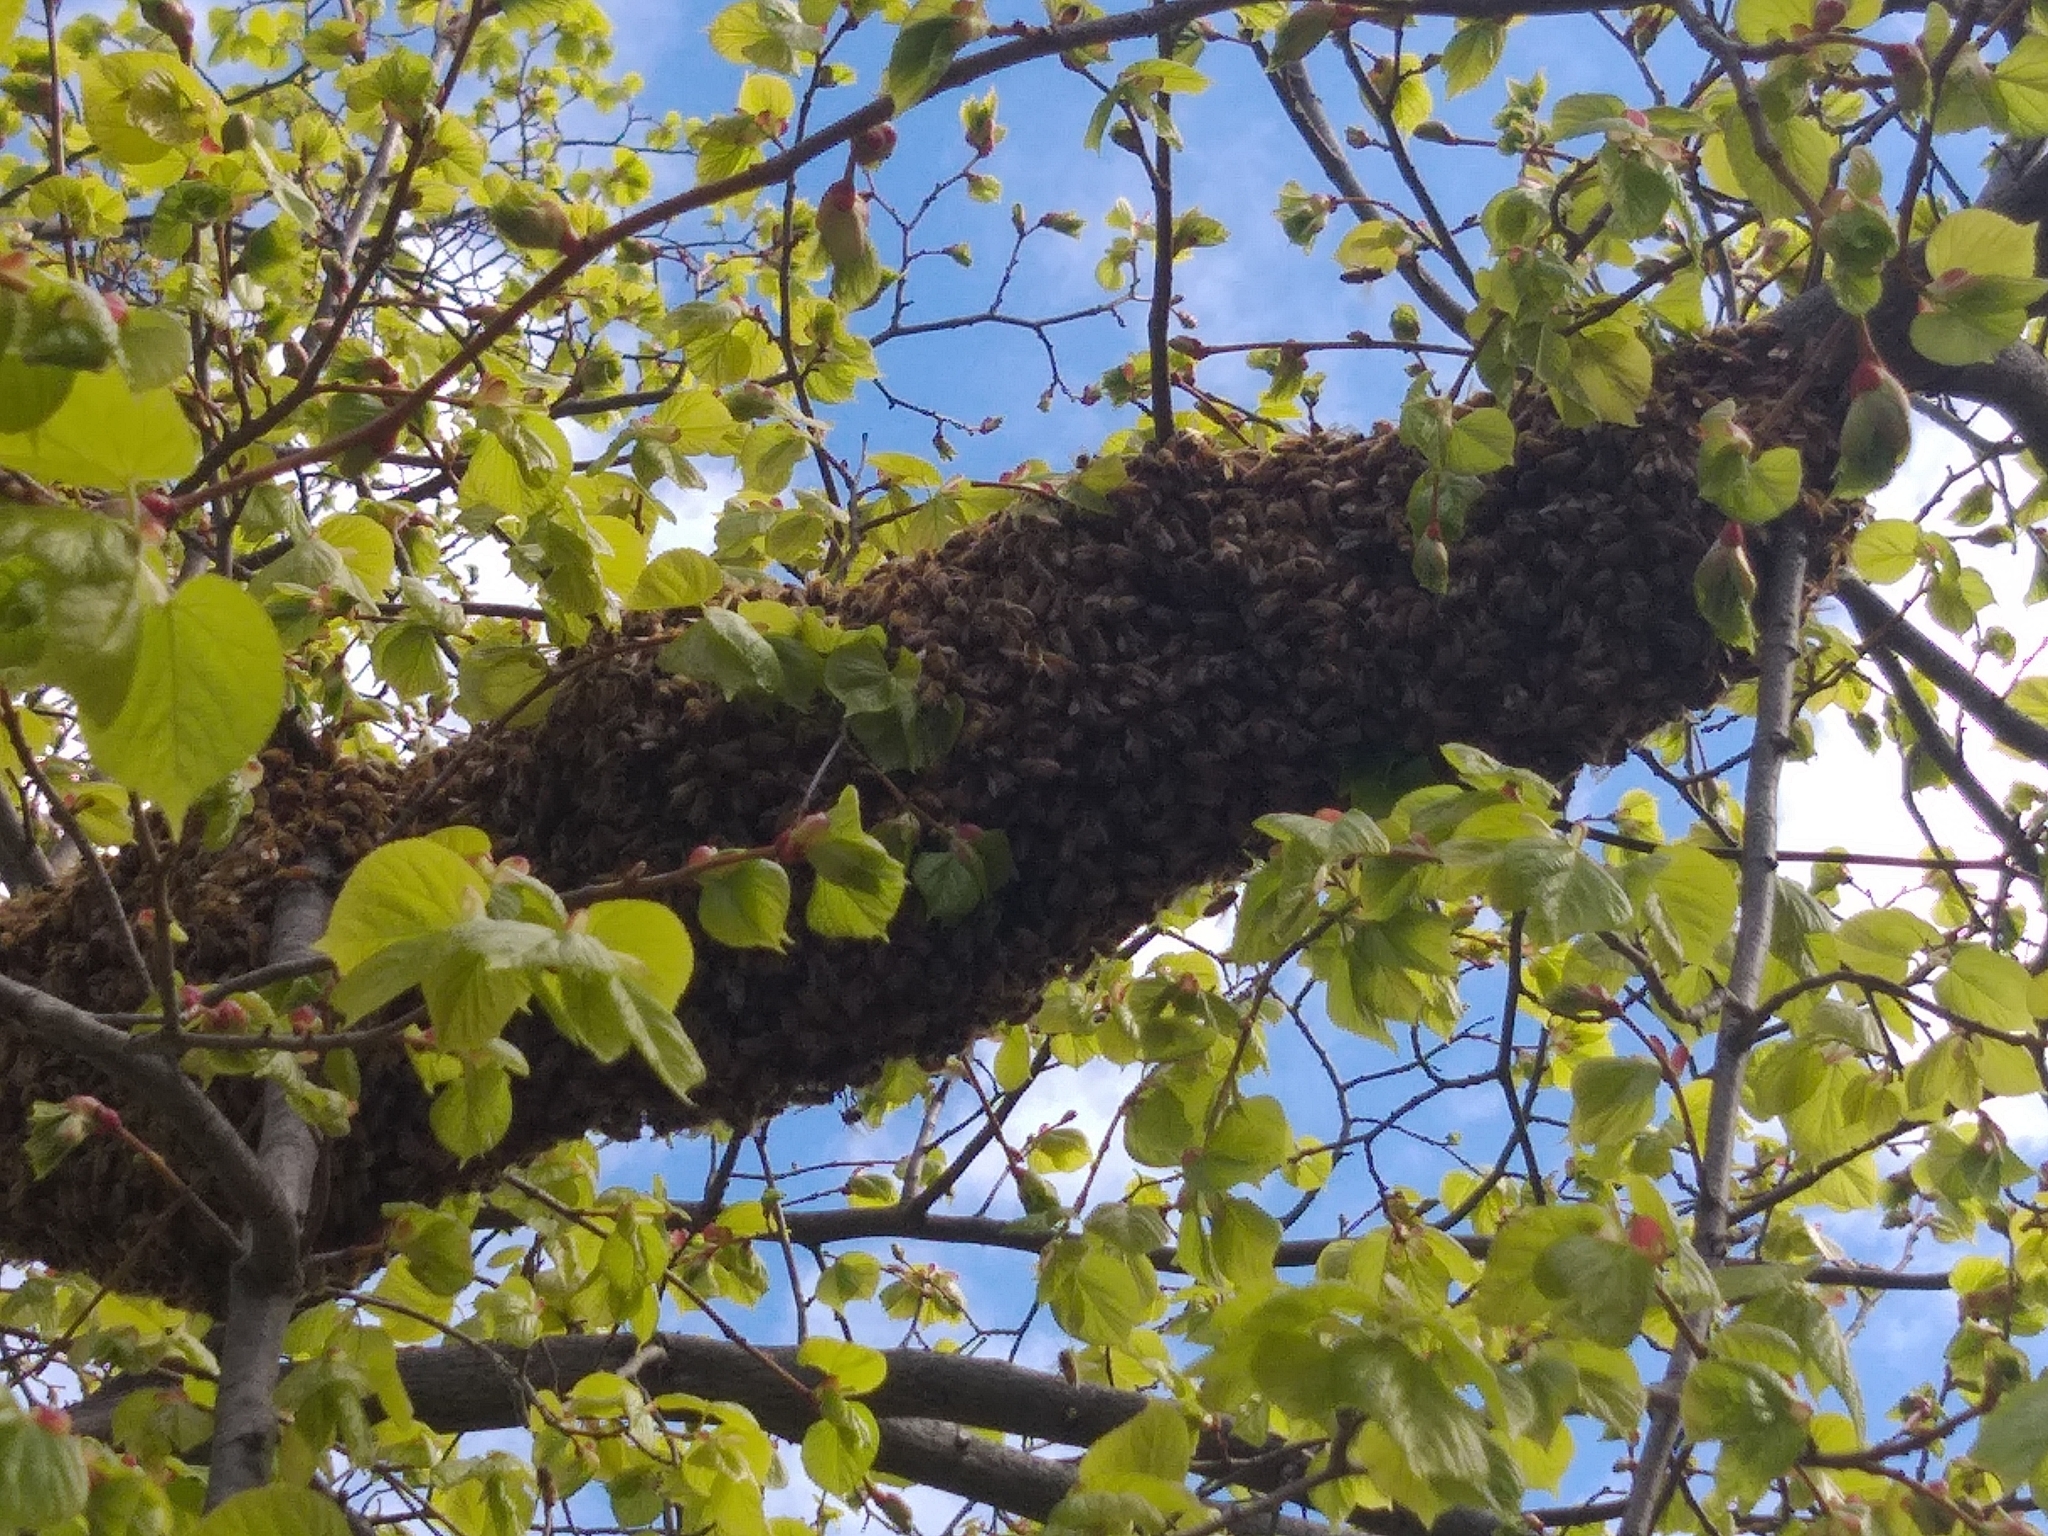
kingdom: Animalia
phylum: Arthropoda
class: Insecta
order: Hymenoptera
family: Apidae
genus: Apis
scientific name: Apis mellifera
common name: Honey bee
